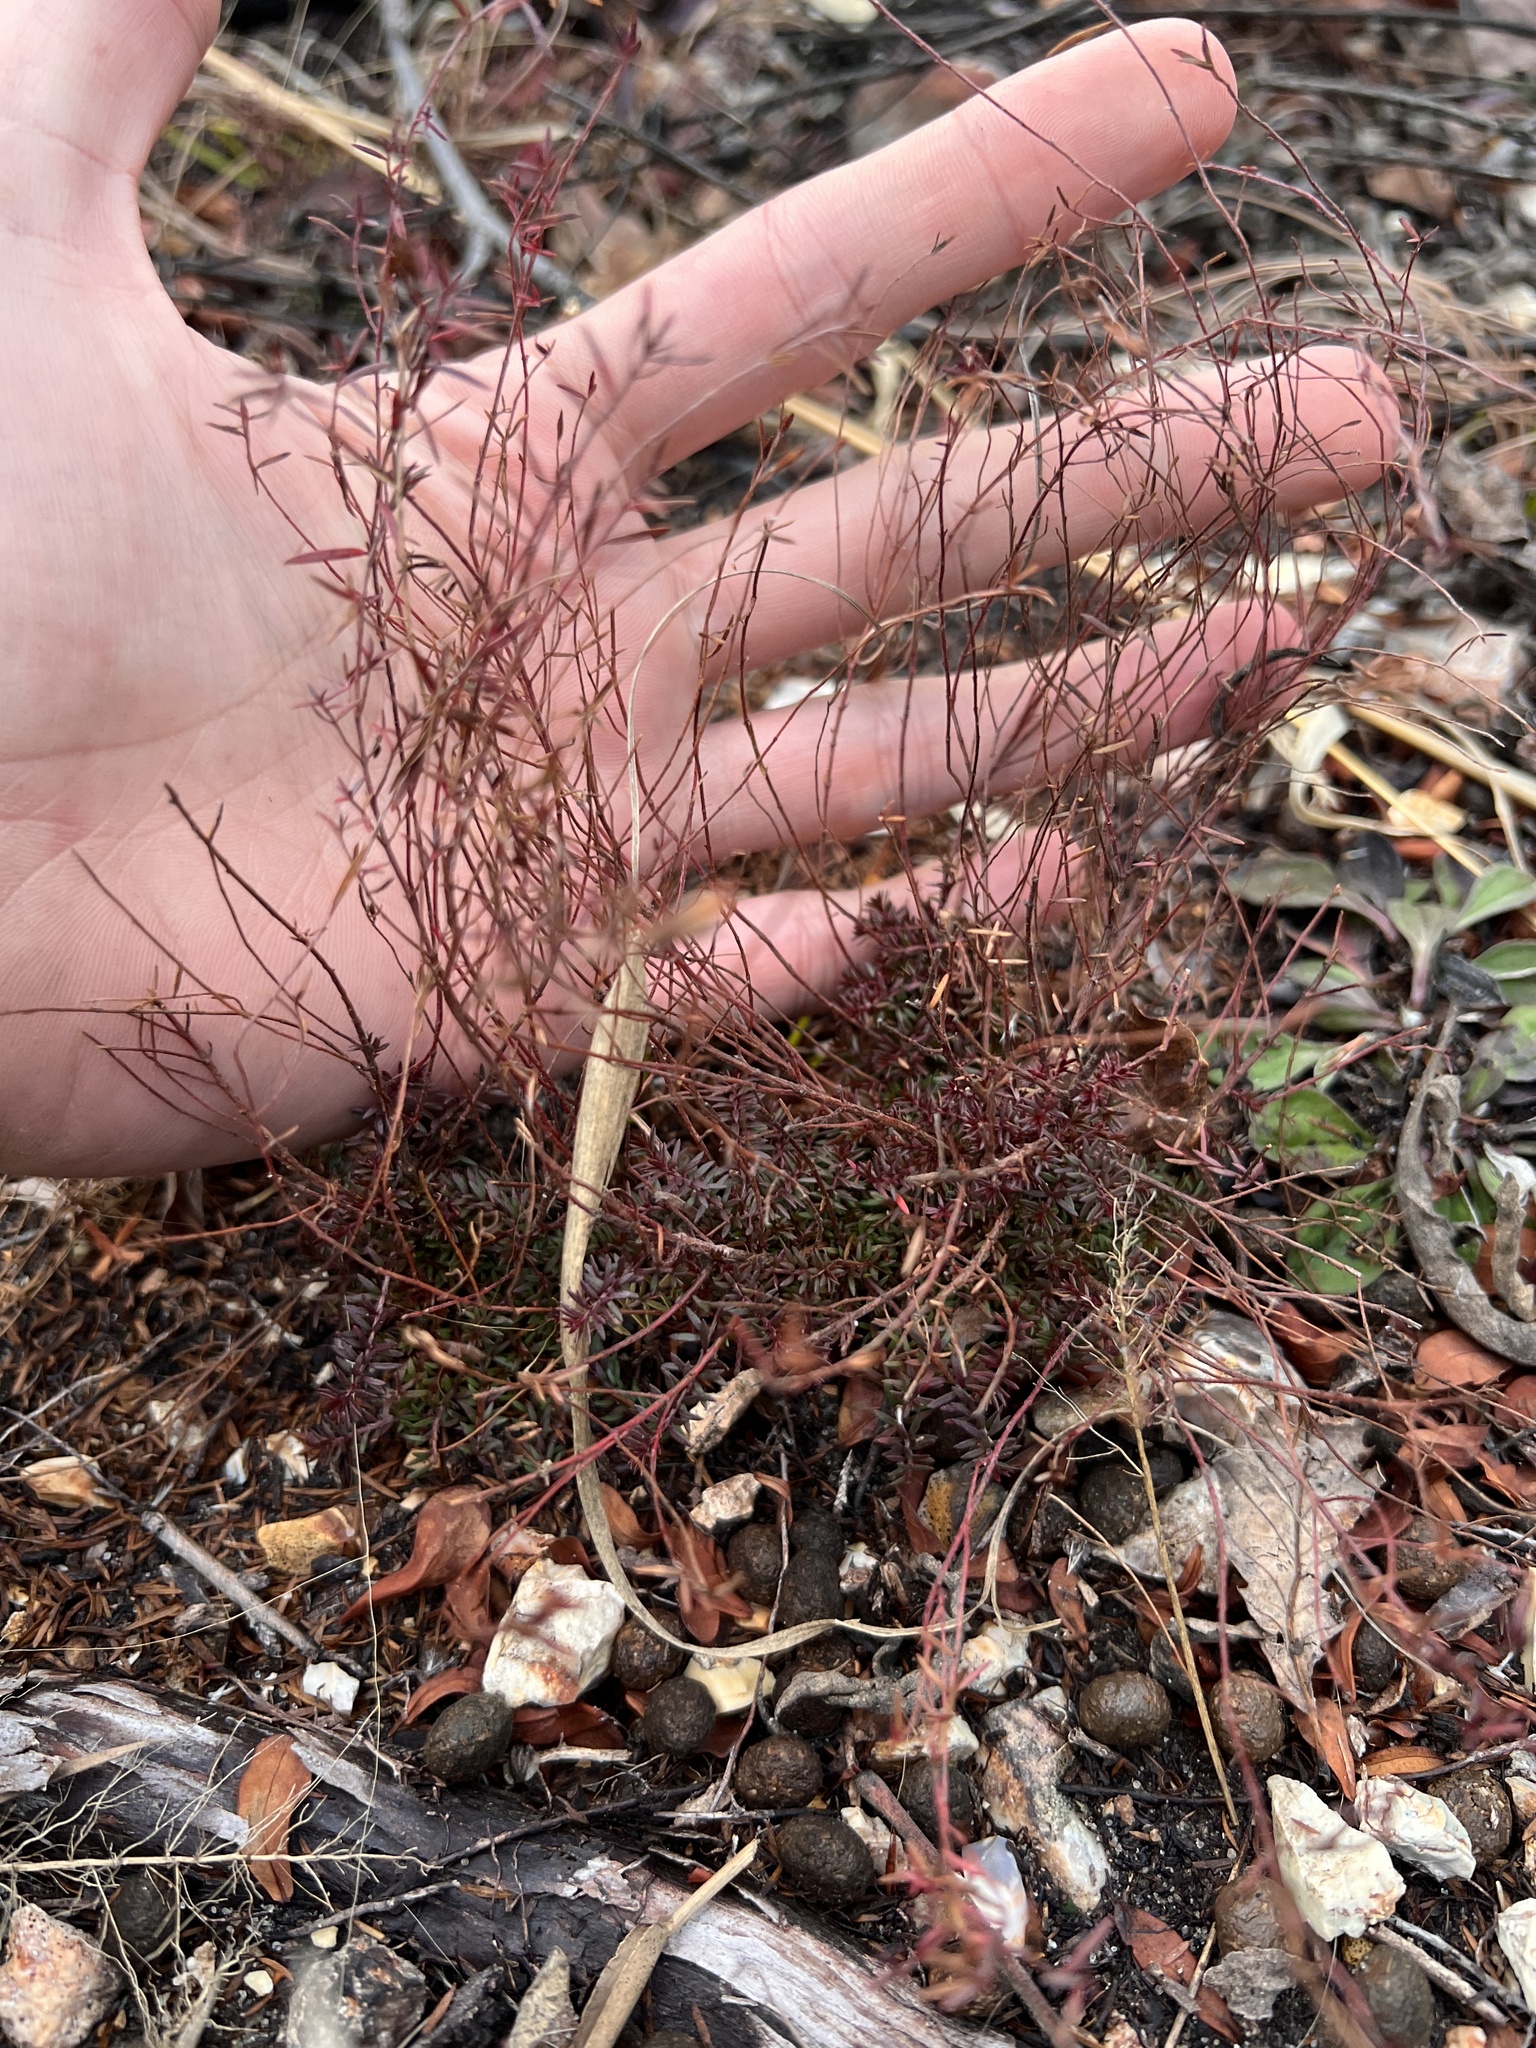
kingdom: Plantae
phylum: Tracheophyta
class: Magnoliopsida
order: Malvales
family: Cistaceae
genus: Lechea
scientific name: Lechea tenuifolia
